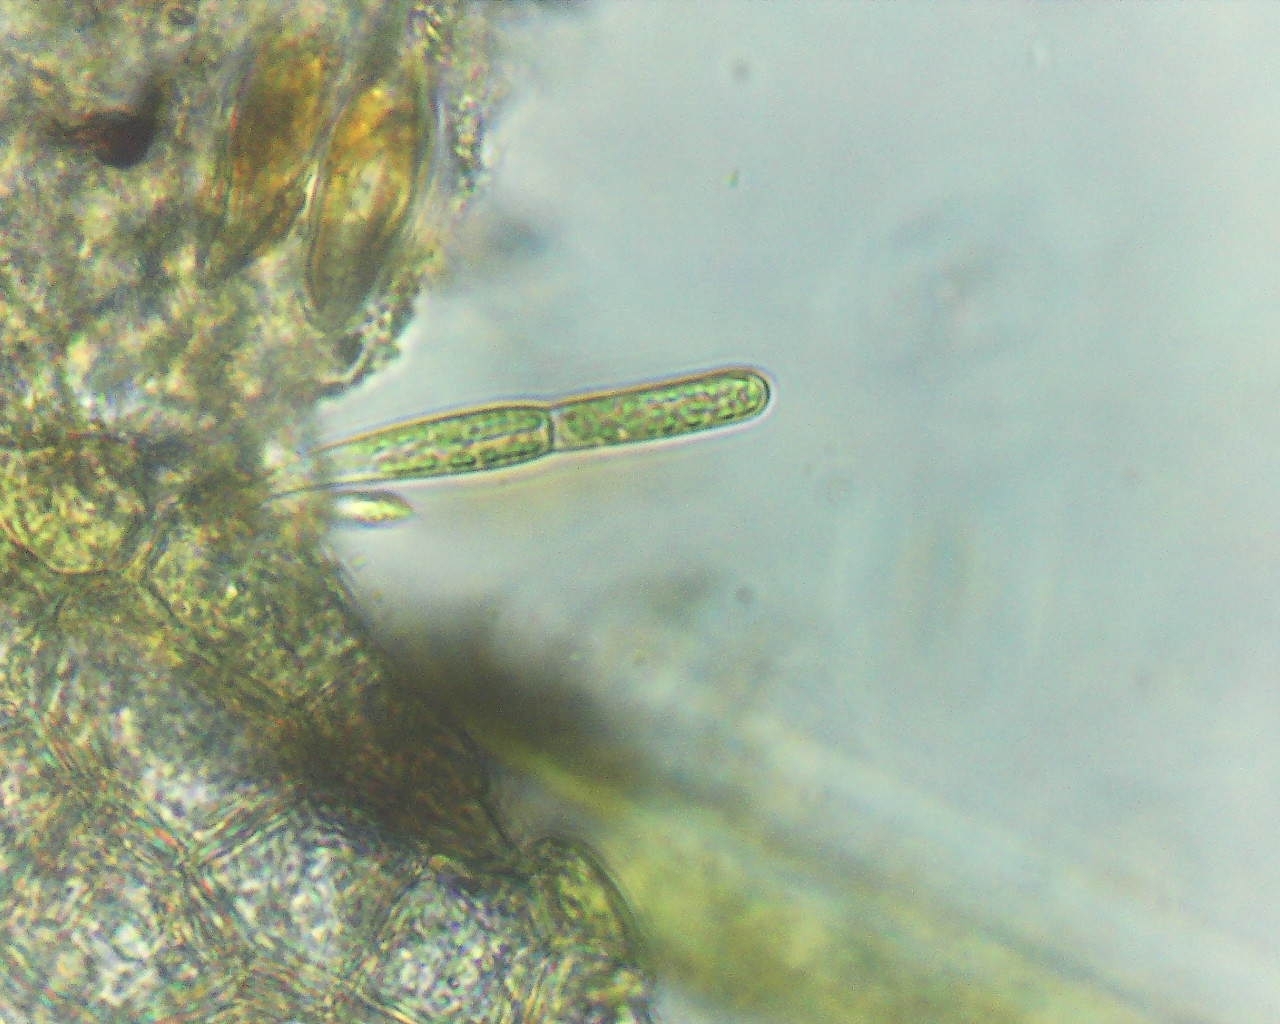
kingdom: Plantae
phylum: Chlorophyta
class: Chlorophyceae
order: Oedogoniales
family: Oedogoniaceae
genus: Oedogonium
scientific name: Oedogonium
